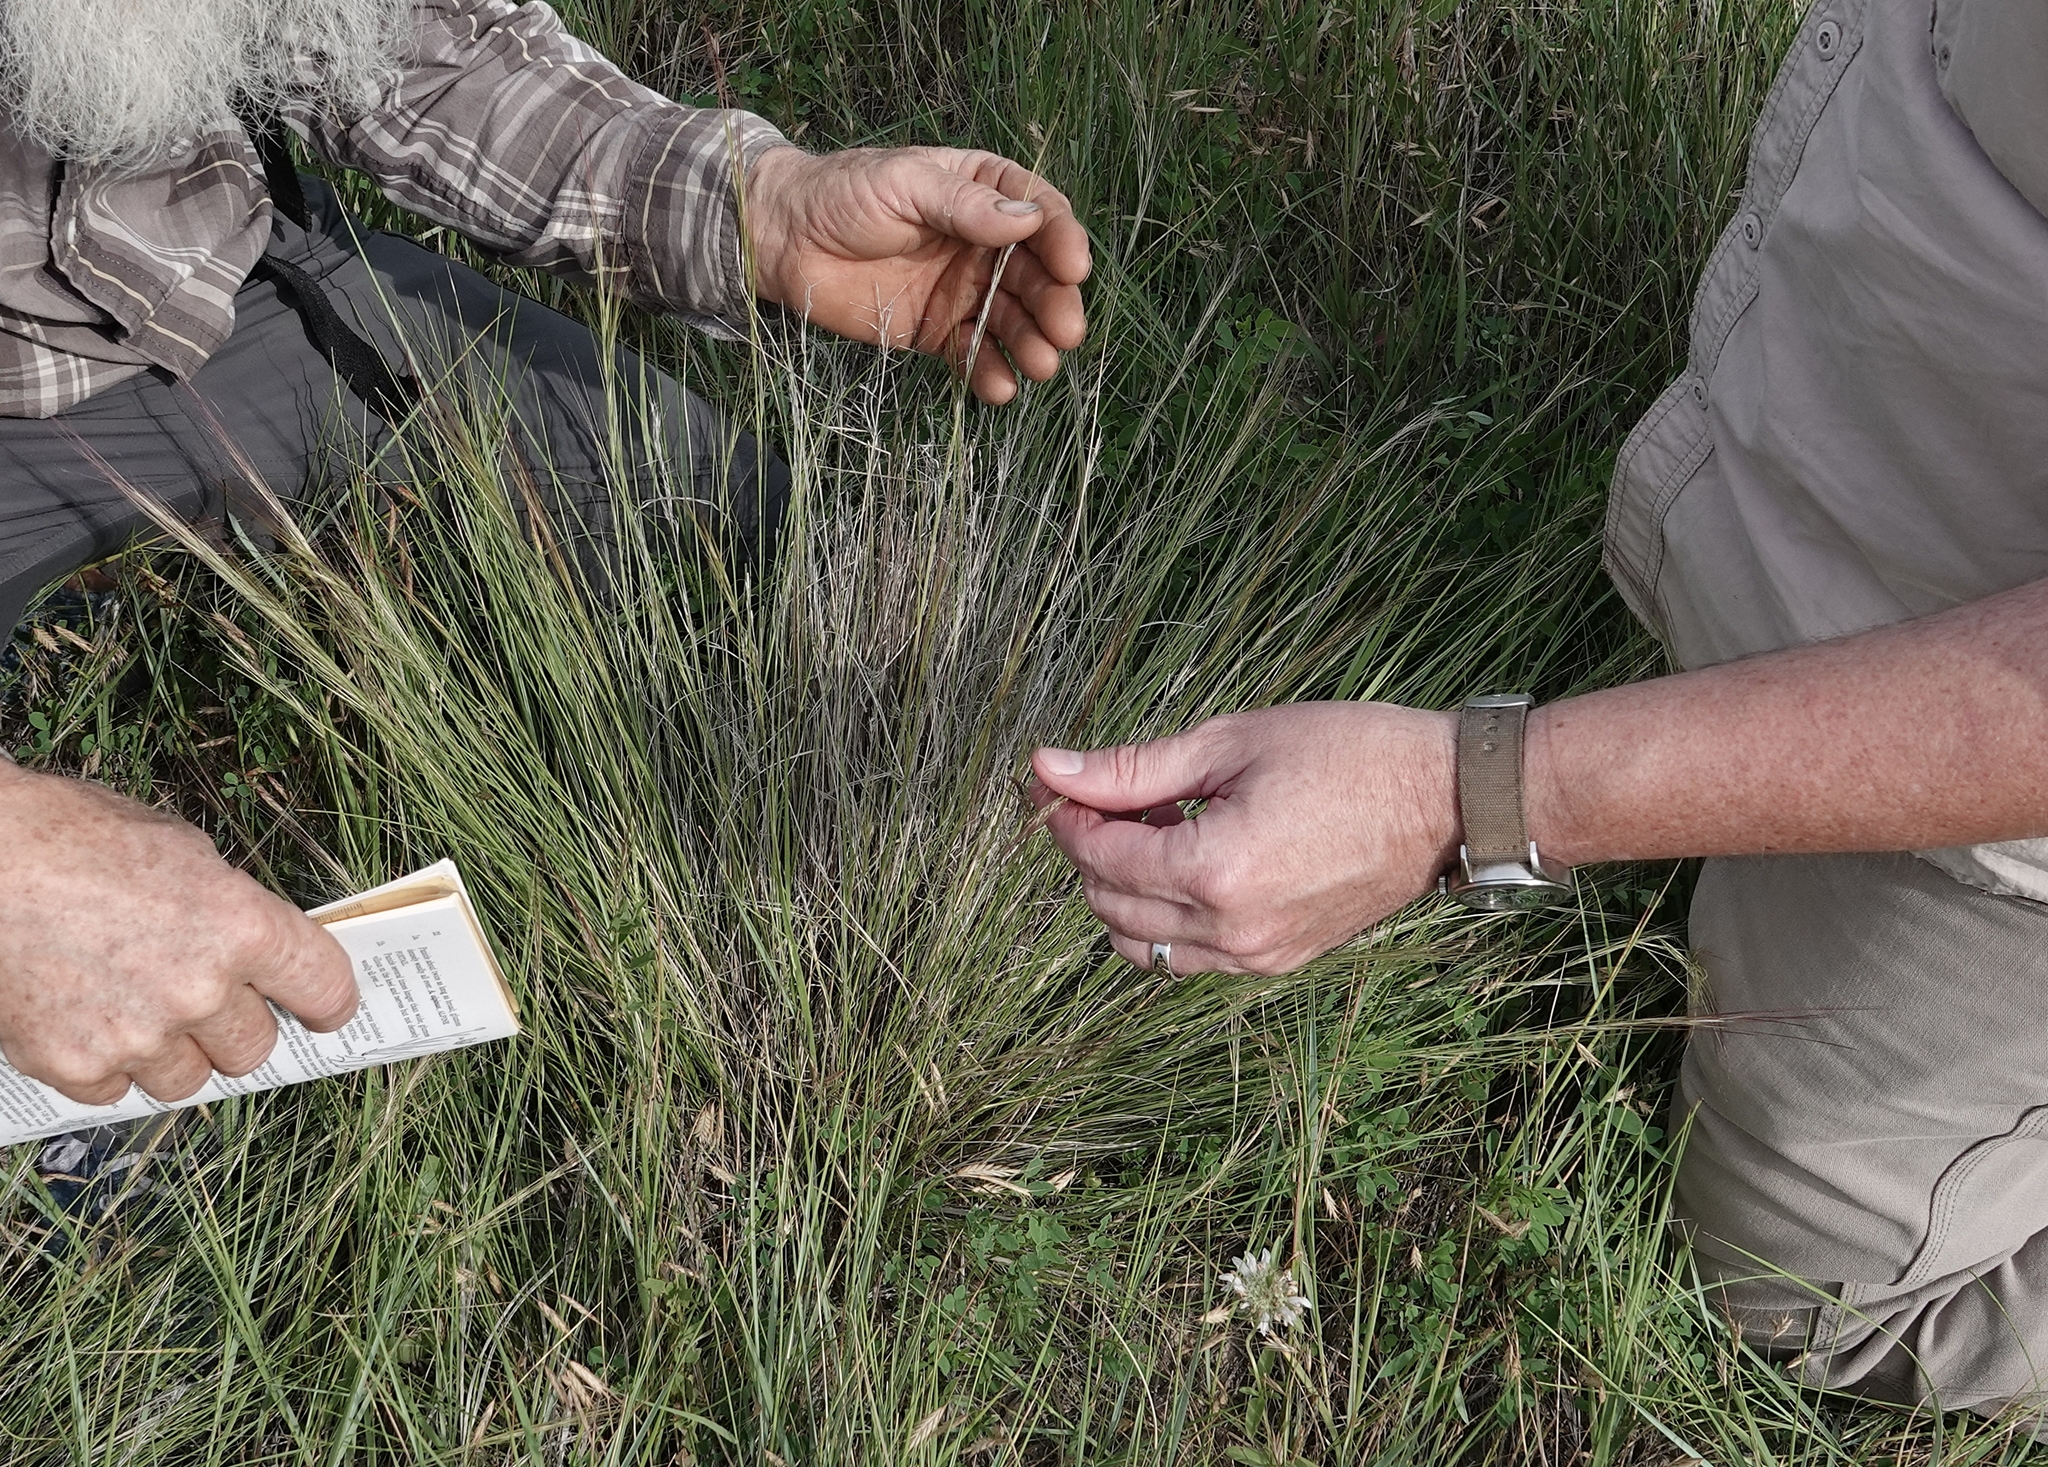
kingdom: Plantae
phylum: Tracheophyta
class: Liliopsida
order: Poales
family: Poaceae
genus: Aristida
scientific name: Aristida purpurea
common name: Purple threeawn
